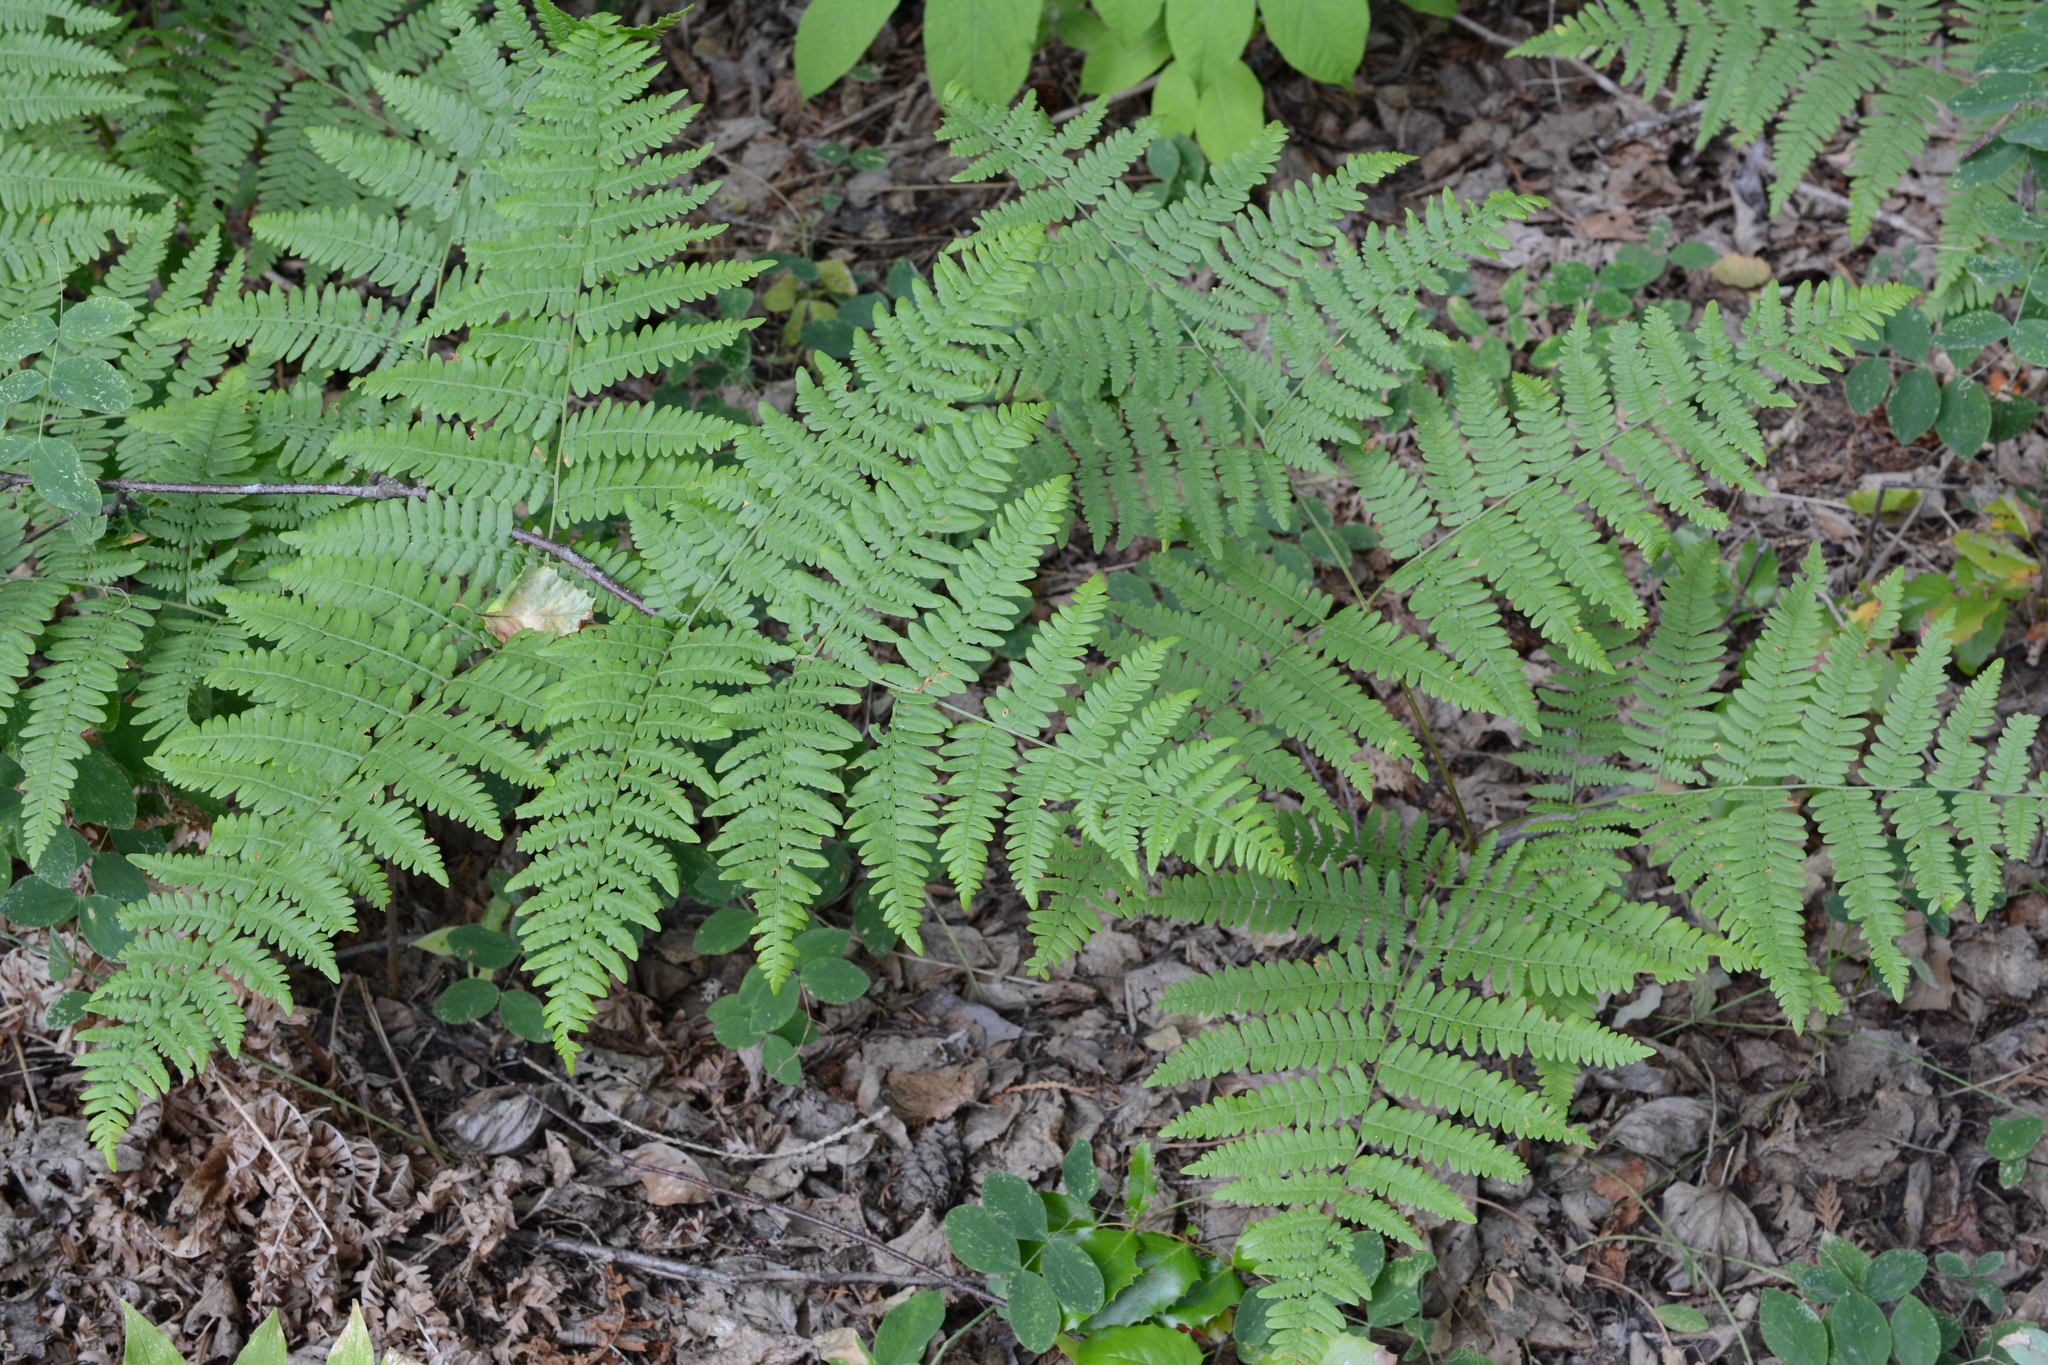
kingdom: Plantae
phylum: Tracheophyta
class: Polypodiopsida
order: Polypodiales
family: Dennstaedtiaceae
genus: Pteridium
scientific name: Pteridium aquilinum
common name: Bracken
